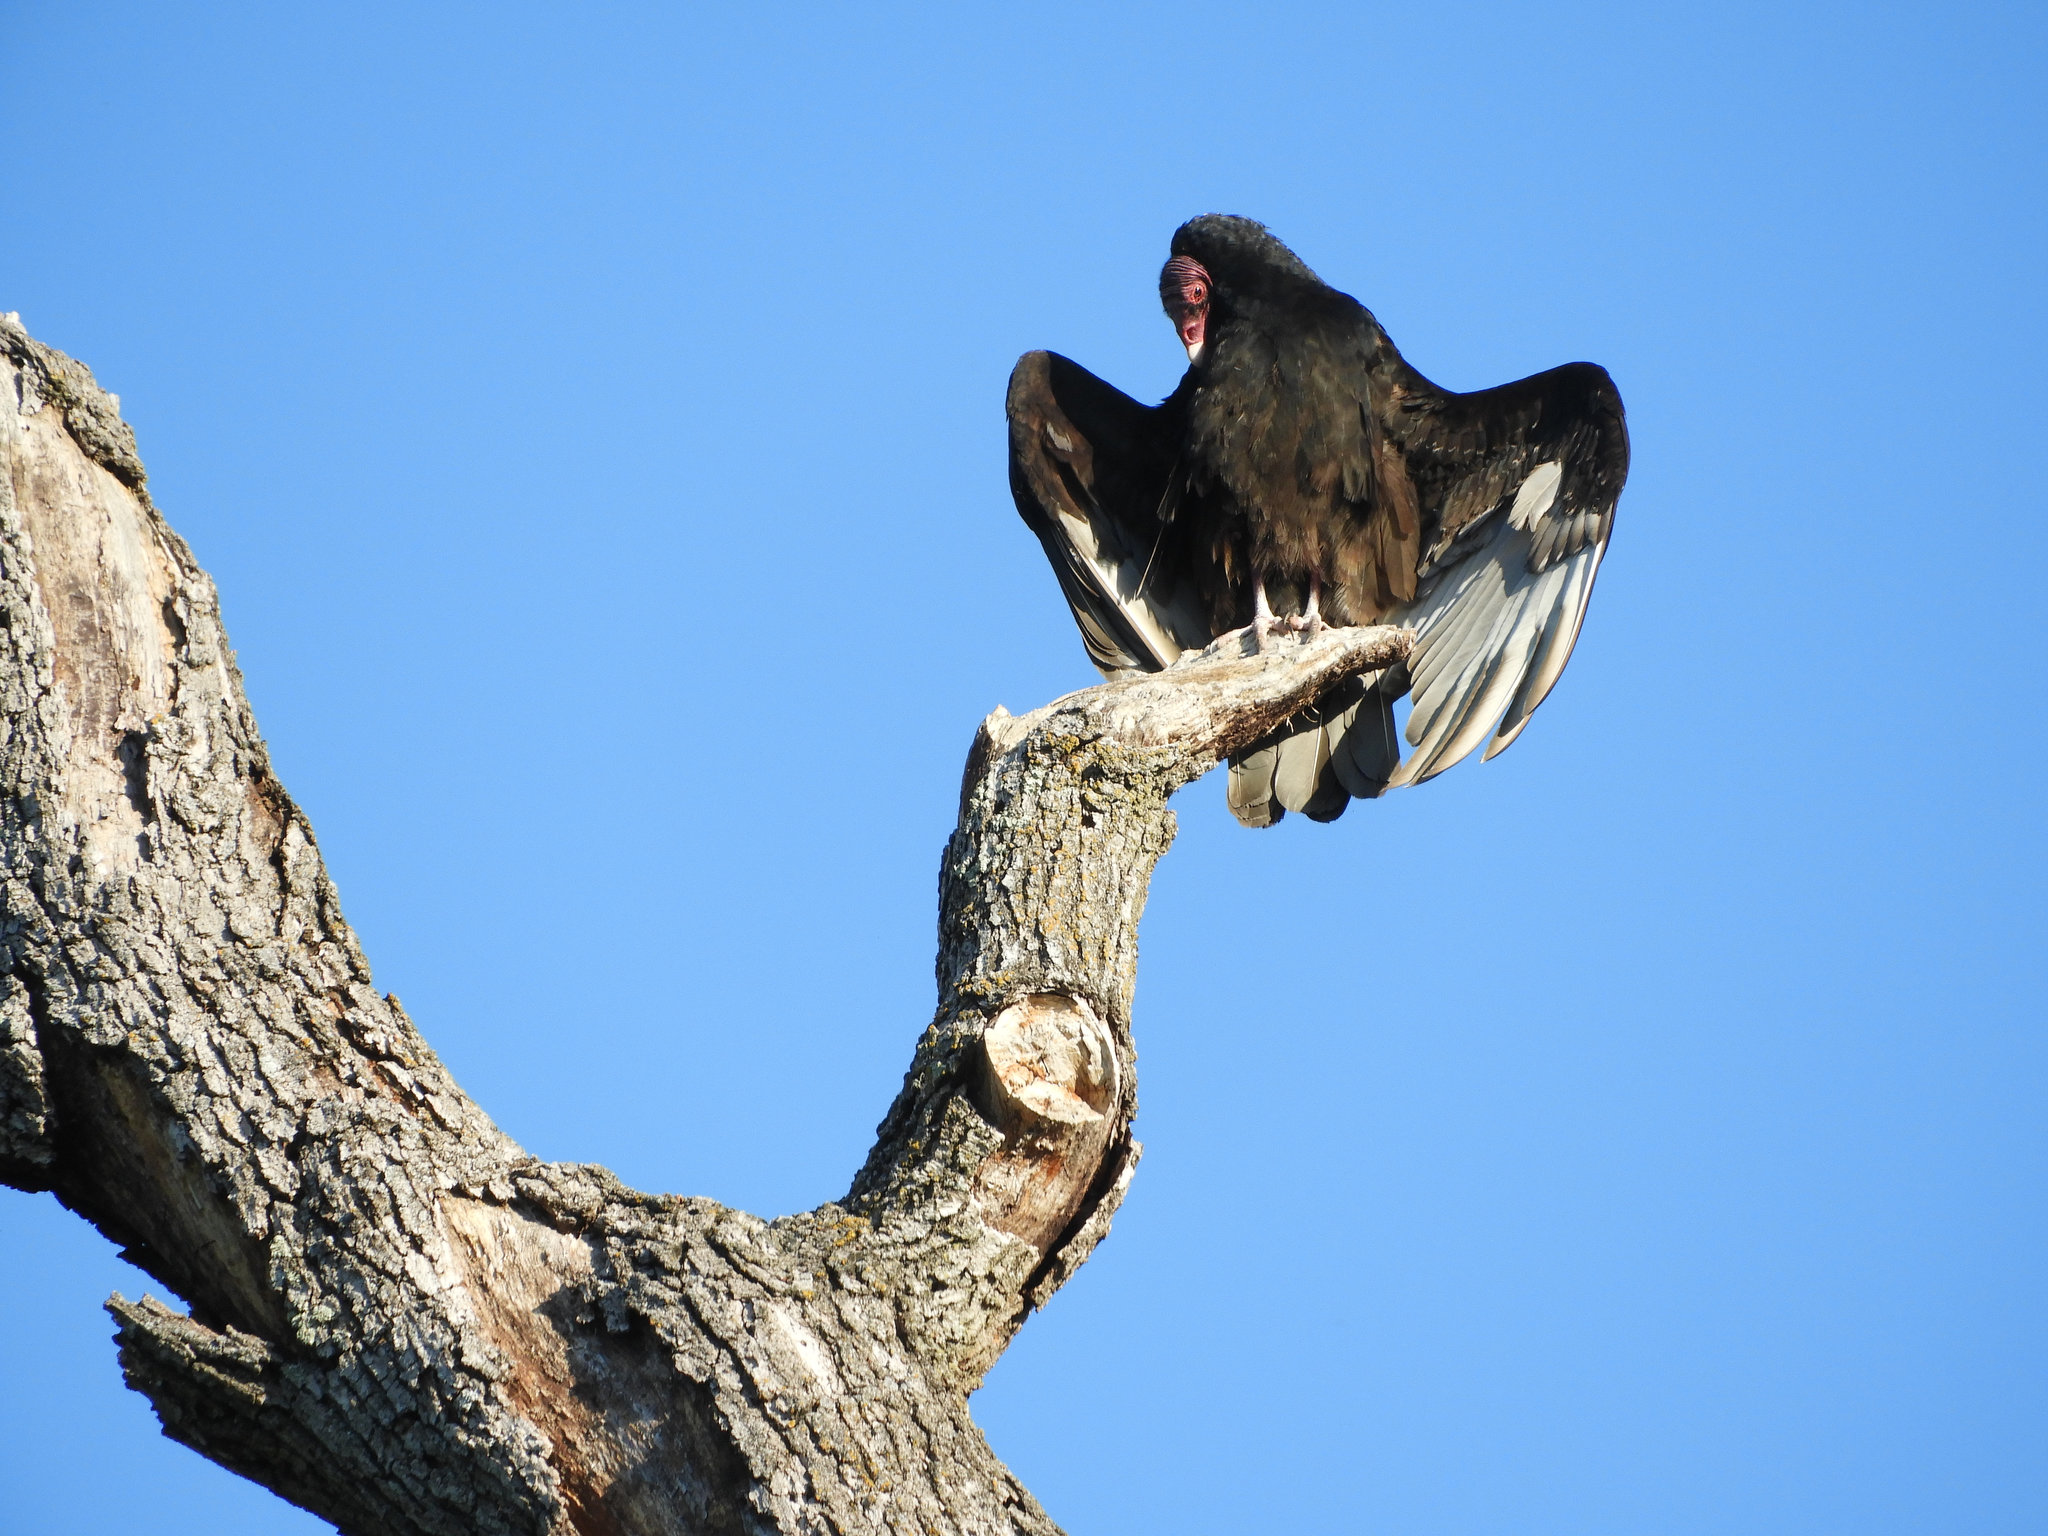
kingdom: Animalia
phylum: Chordata
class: Aves
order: Accipitriformes
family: Cathartidae
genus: Cathartes
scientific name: Cathartes aura
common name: Turkey vulture
